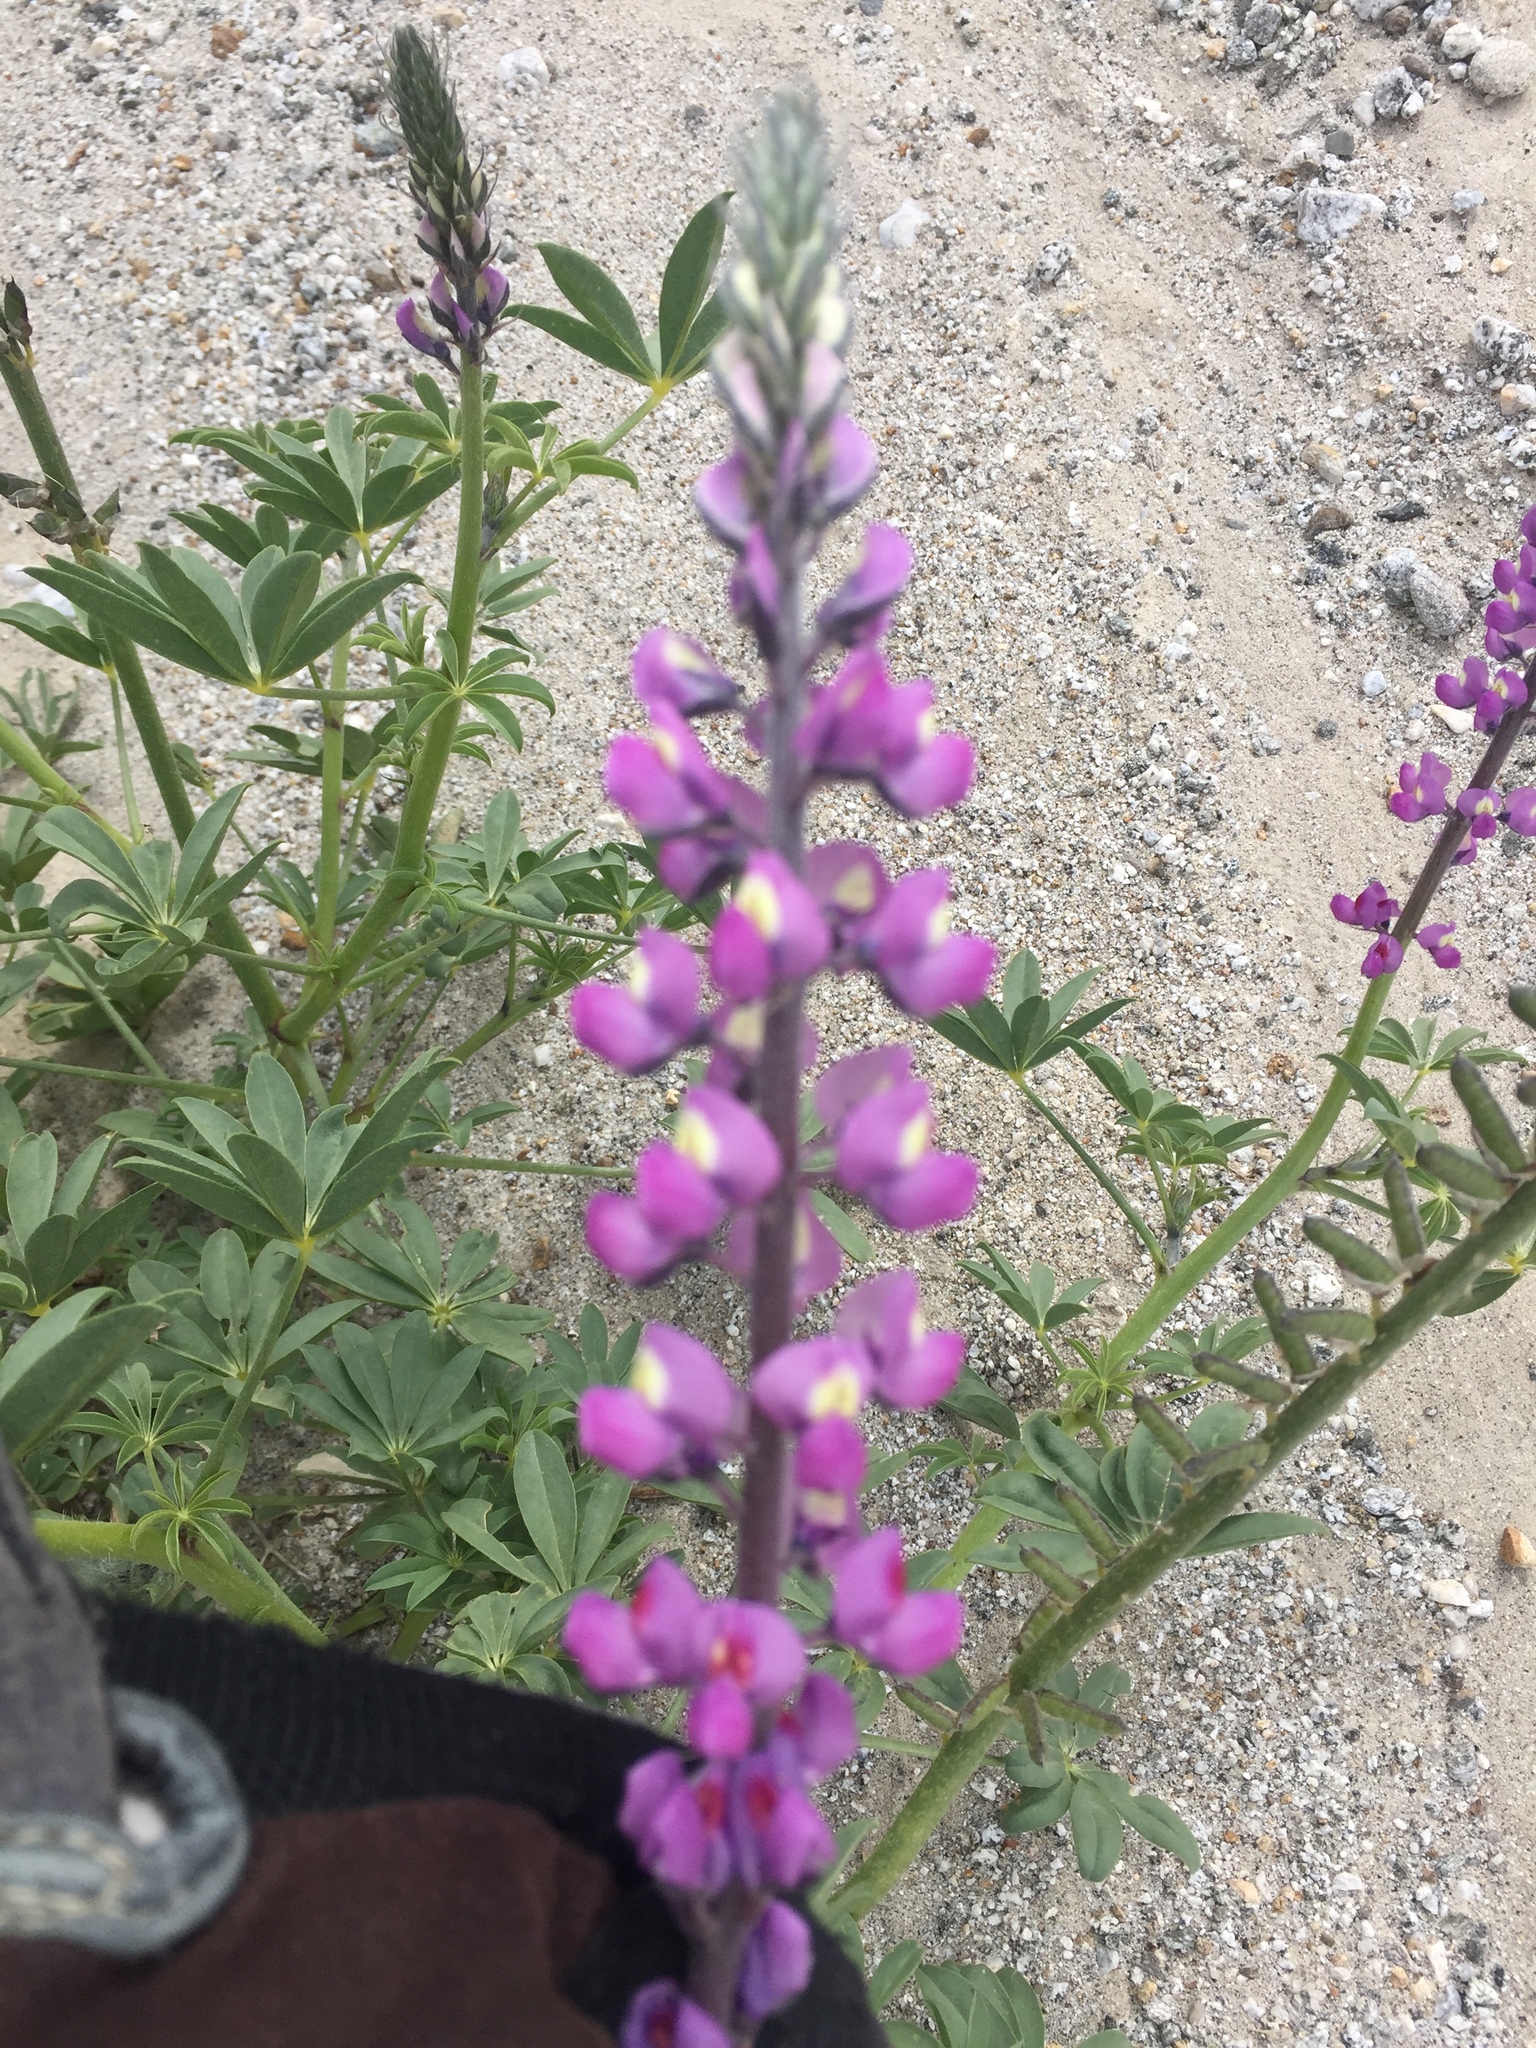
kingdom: Plantae
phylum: Tracheophyta
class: Magnoliopsida
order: Fabales
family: Fabaceae
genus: Lupinus
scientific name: Lupinus arizonicus
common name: Arizona lupine
